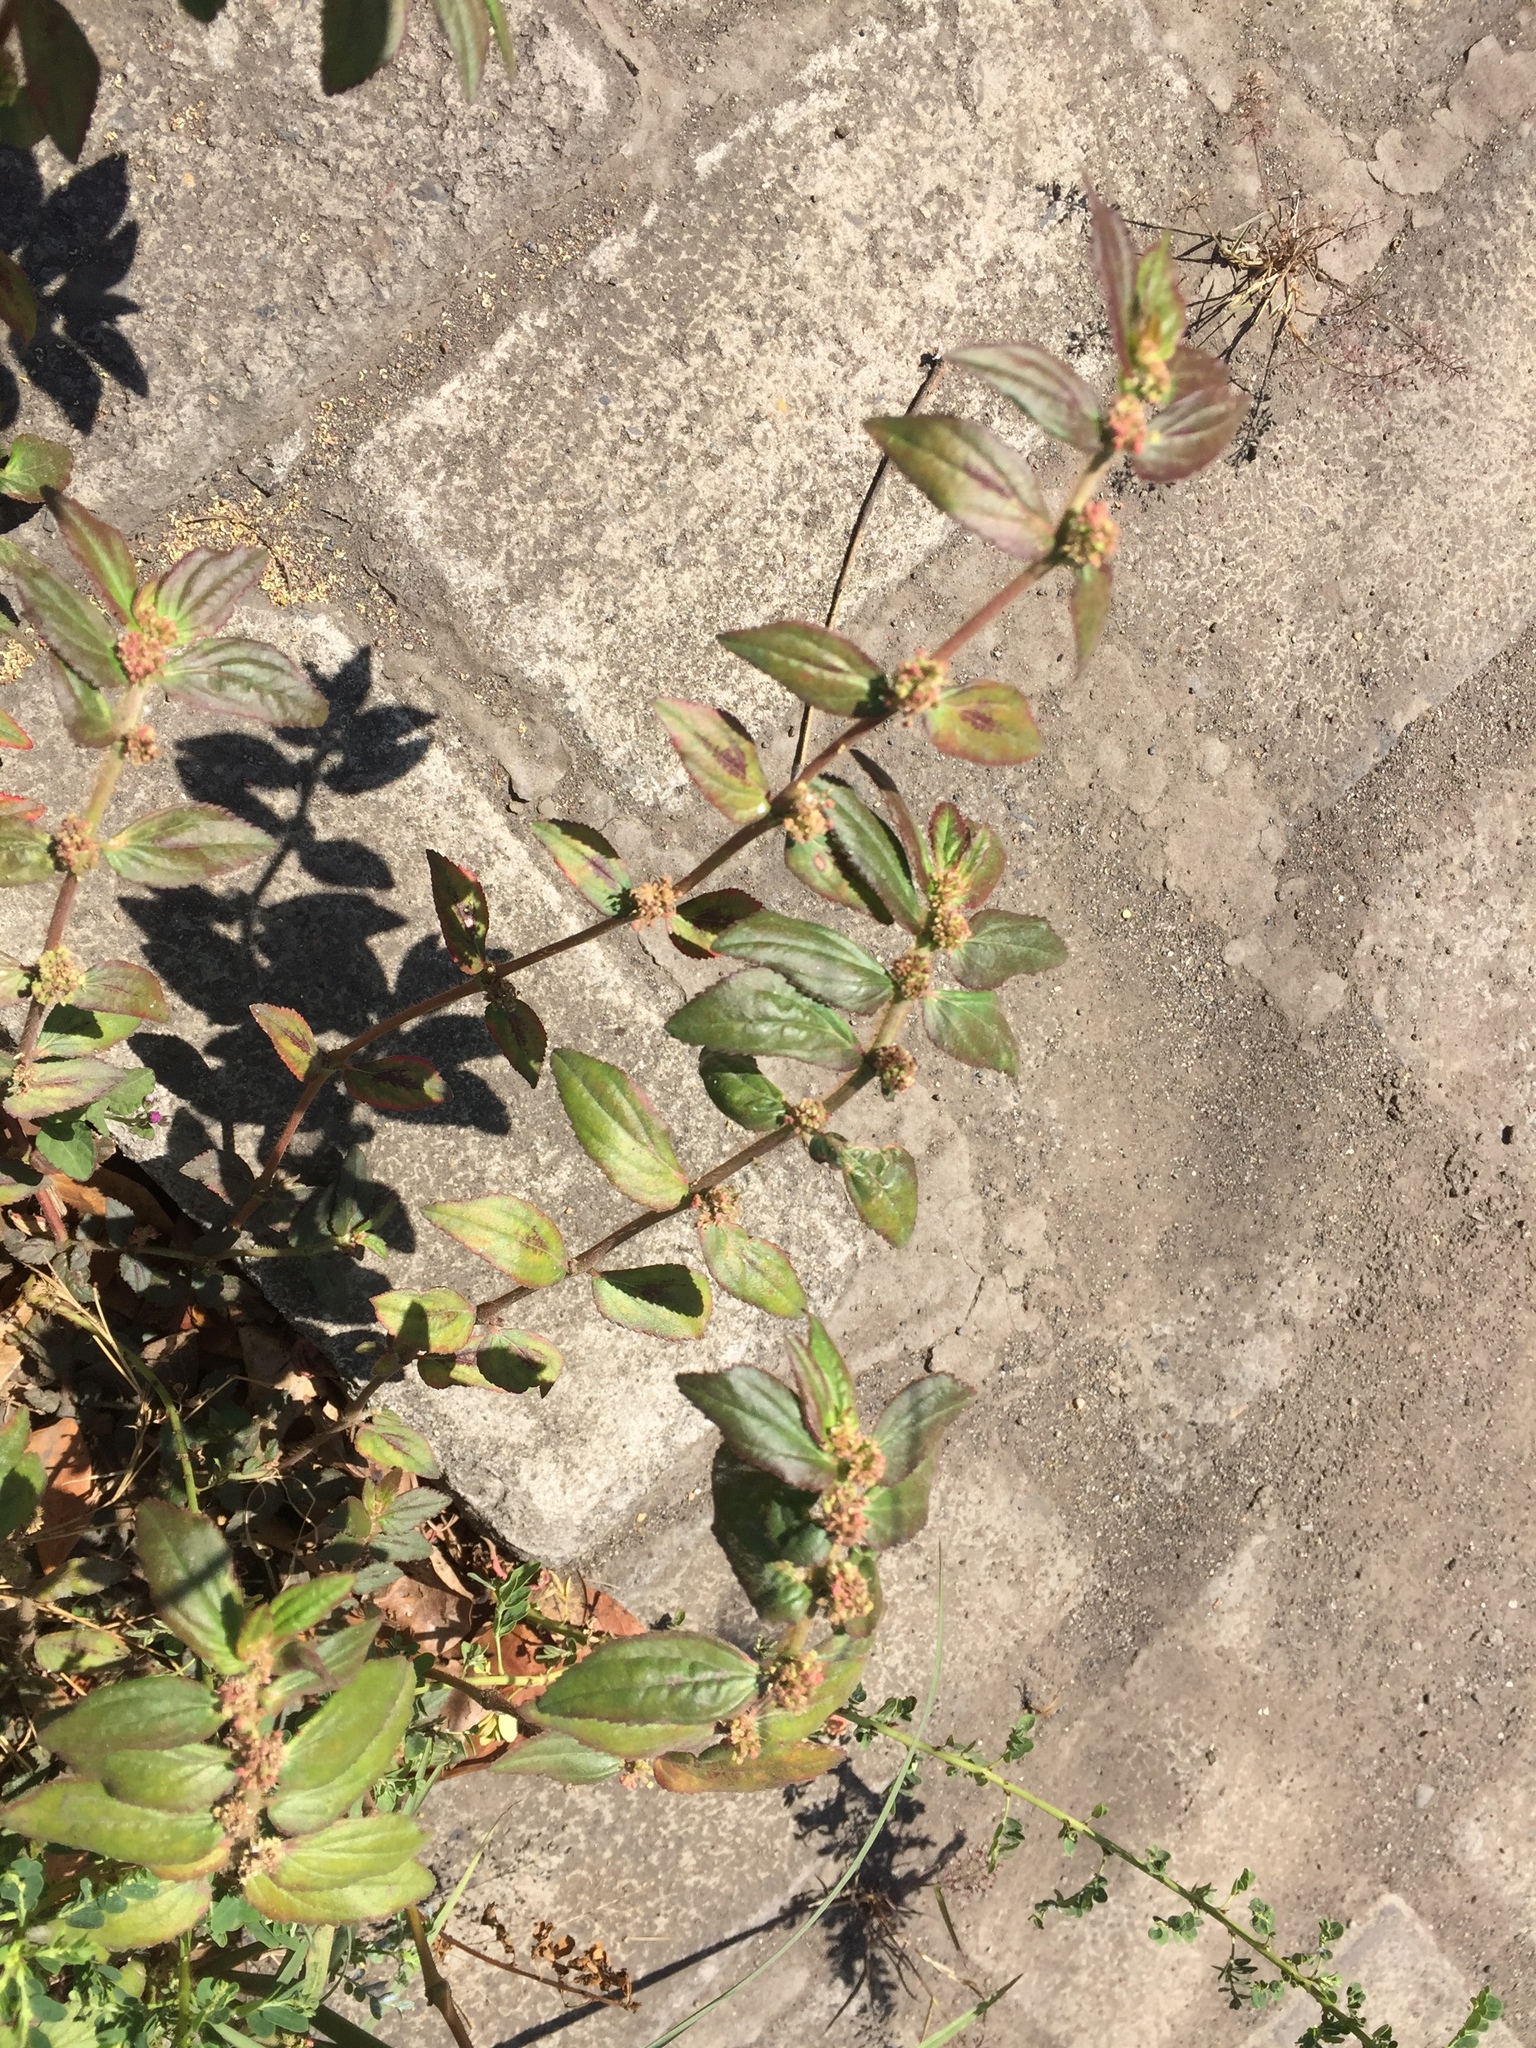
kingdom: Plantae
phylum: Tracheophyta
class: Magnoliopsida
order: Malpighiales
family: Euphorbiaceae
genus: Euphorbia
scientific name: Euphorbia hirta
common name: Pillpod sandmat
